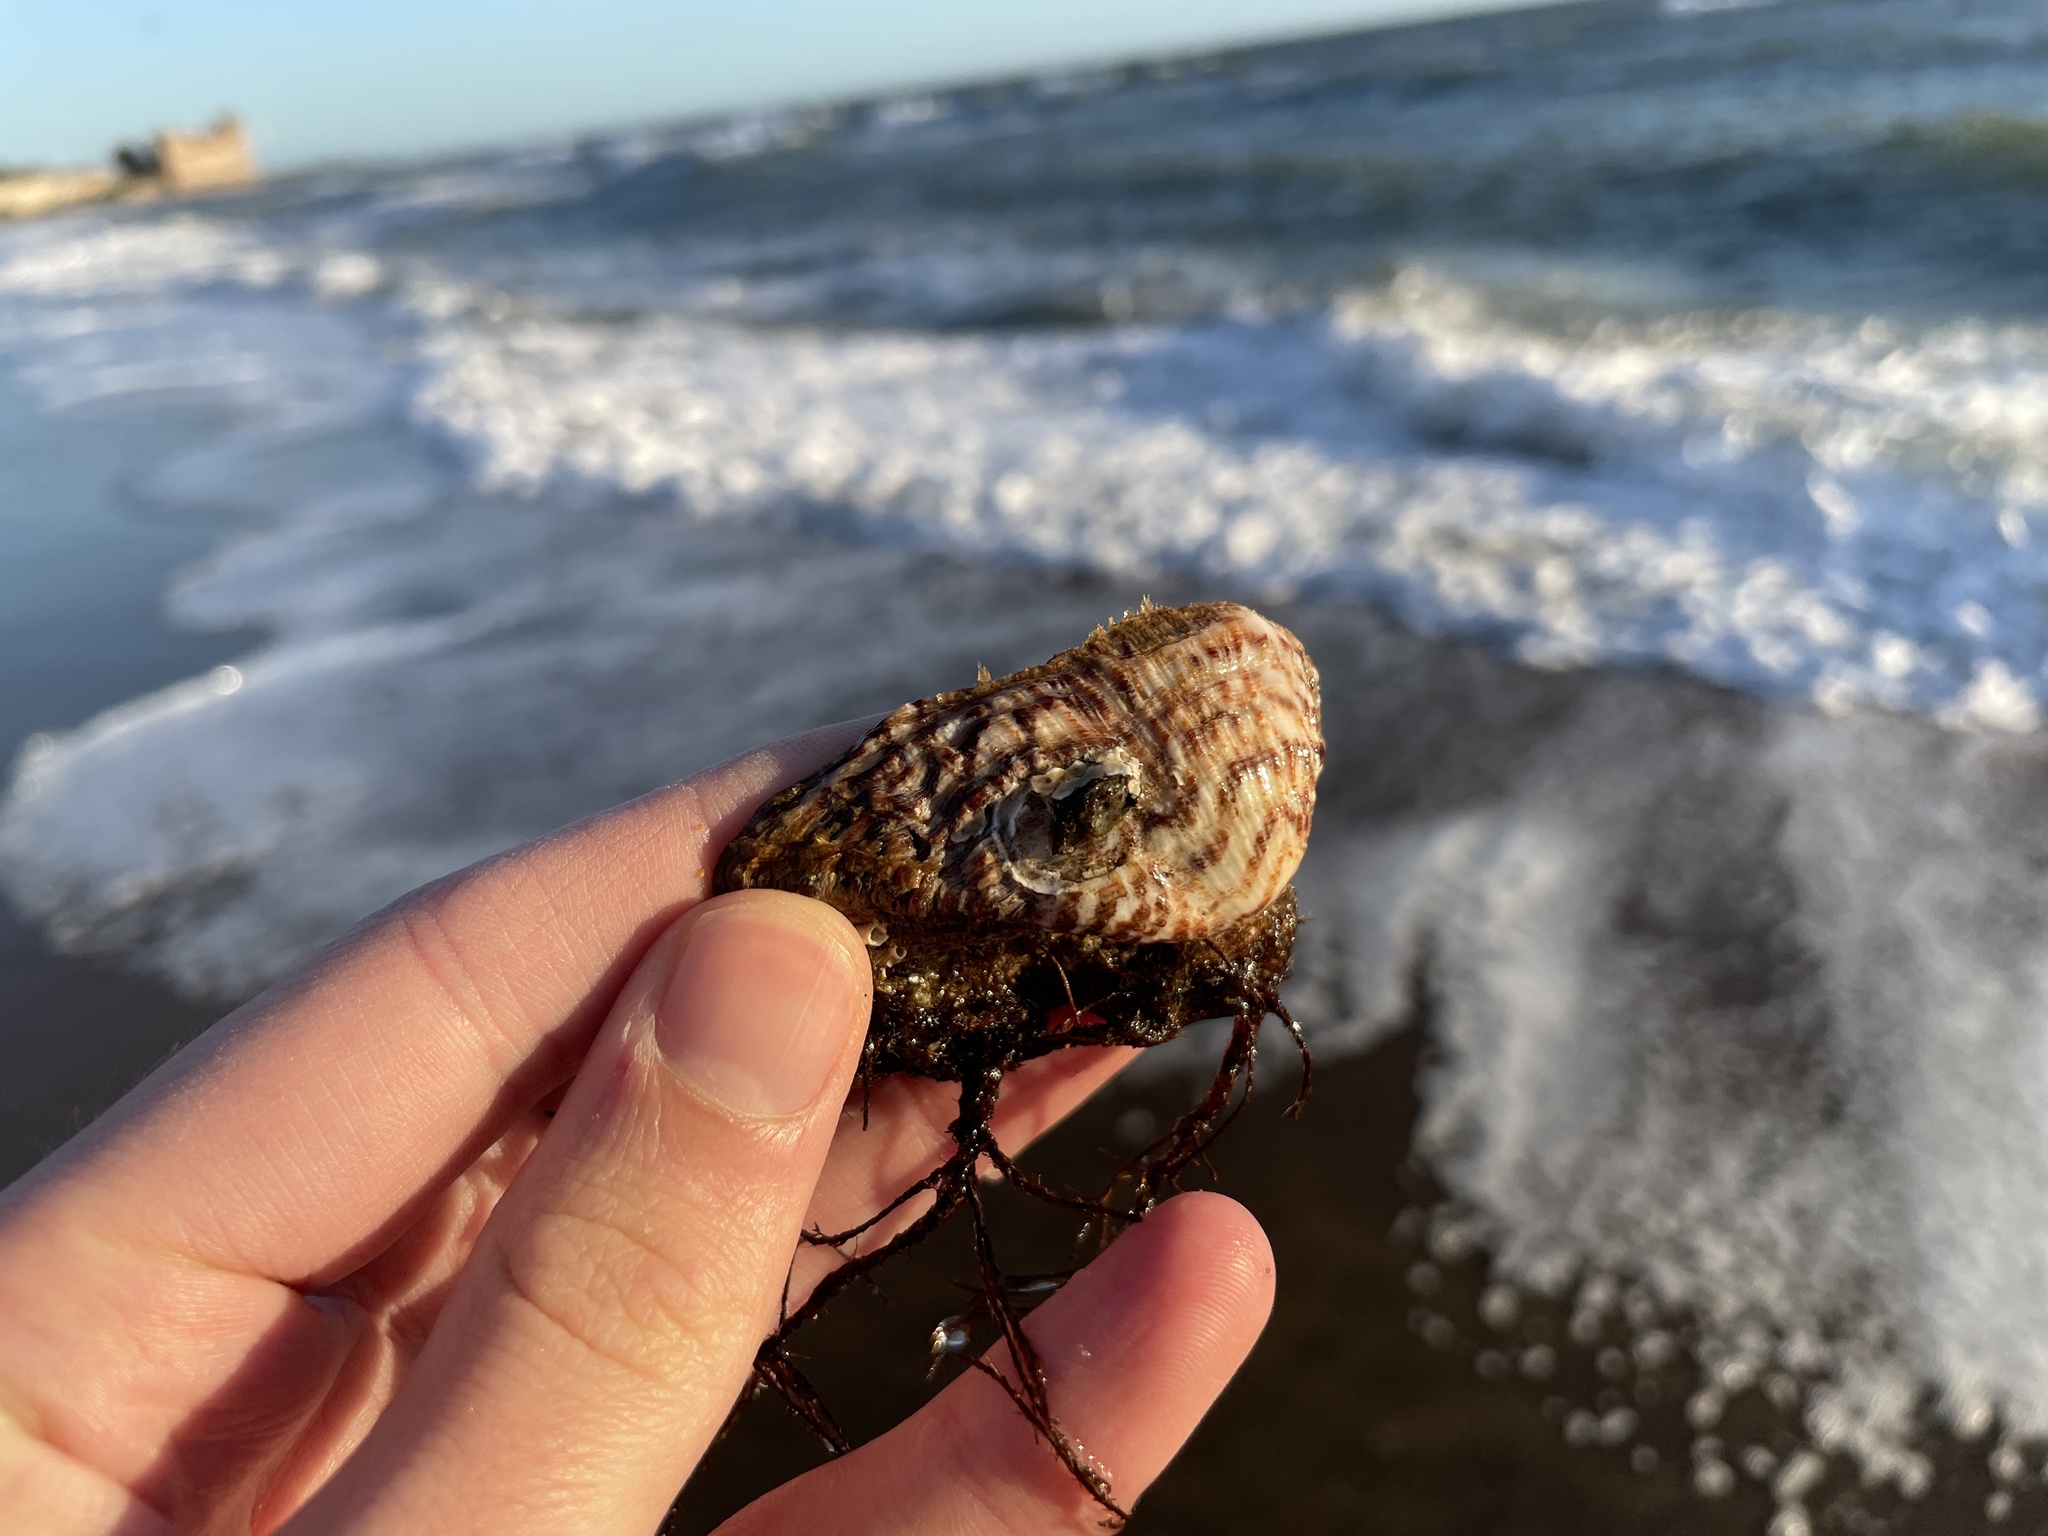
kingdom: Animalia
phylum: Mollusca
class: Bivalvia
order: Arcida
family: Arcidae
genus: Arca
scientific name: Arca noae
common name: Noah's arch
